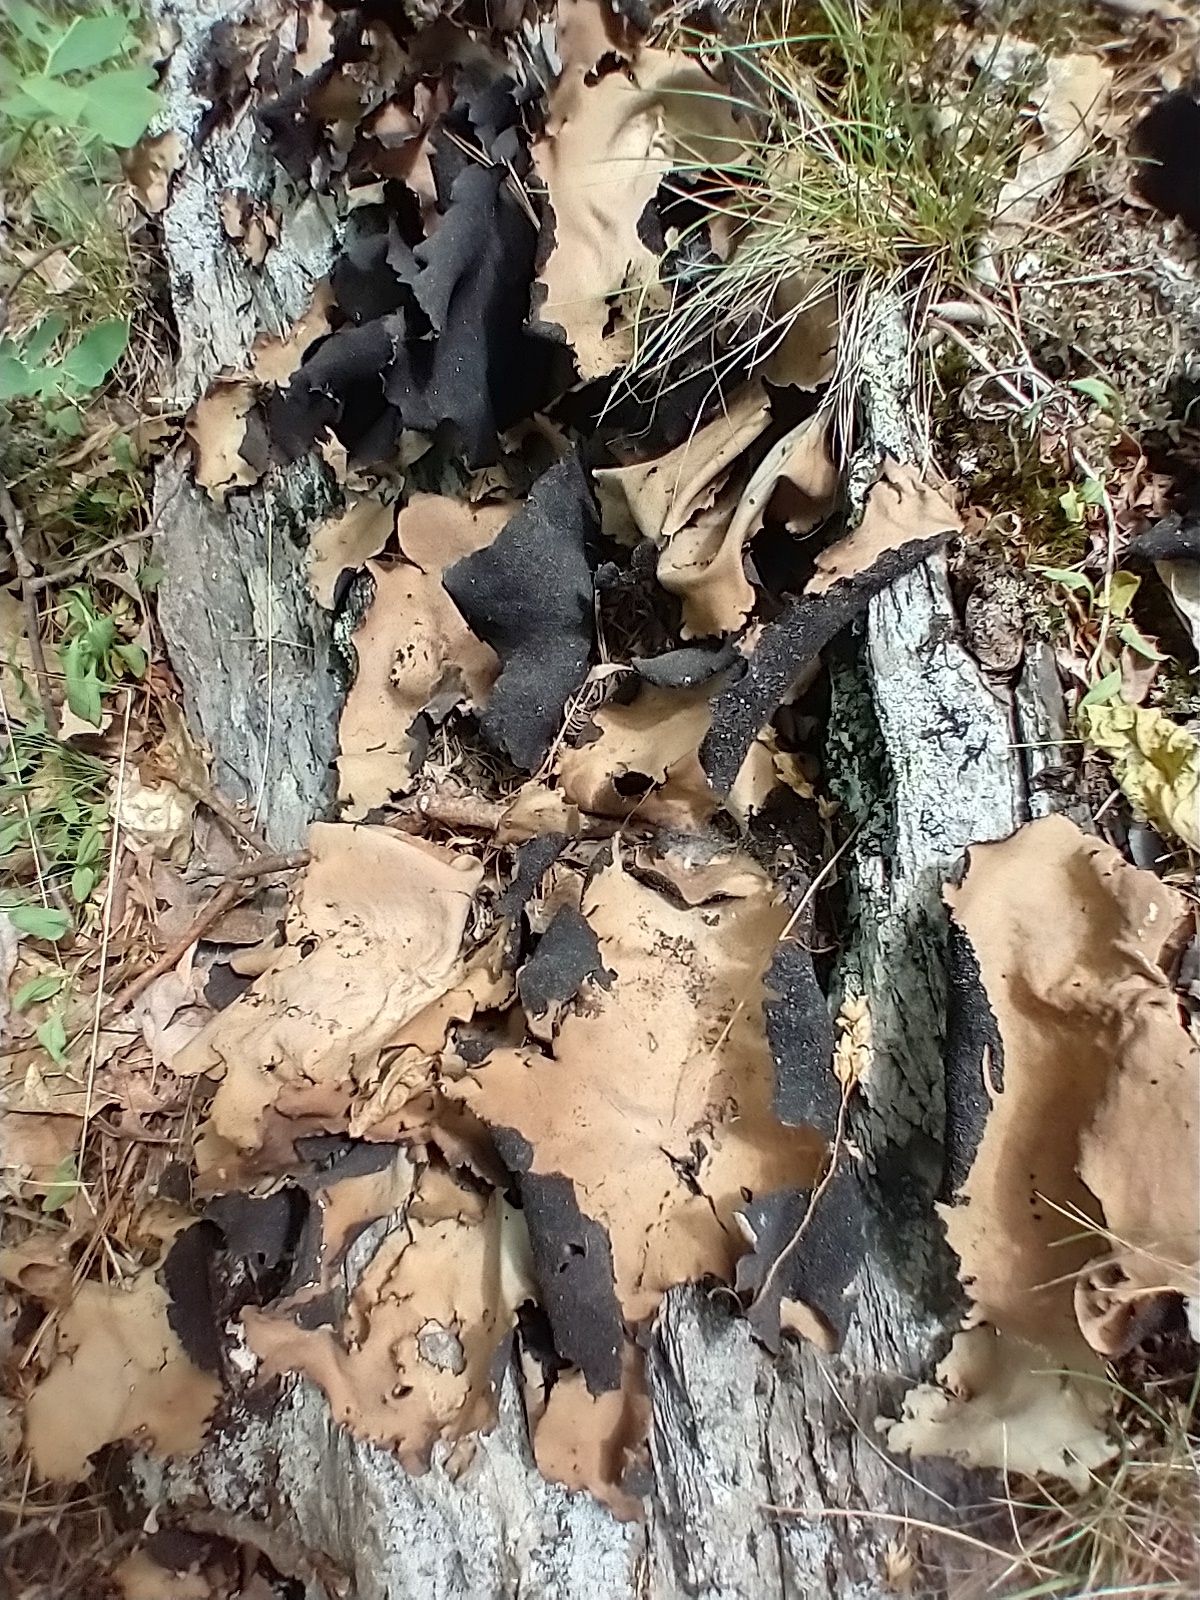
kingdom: Fungi
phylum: Ascomycota
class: Lecanoromycetes
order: Umbilicariales
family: Umbilicariaceae
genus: Umbilicaria
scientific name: Umbilicaria mammulata
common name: Smooth rock tripe
